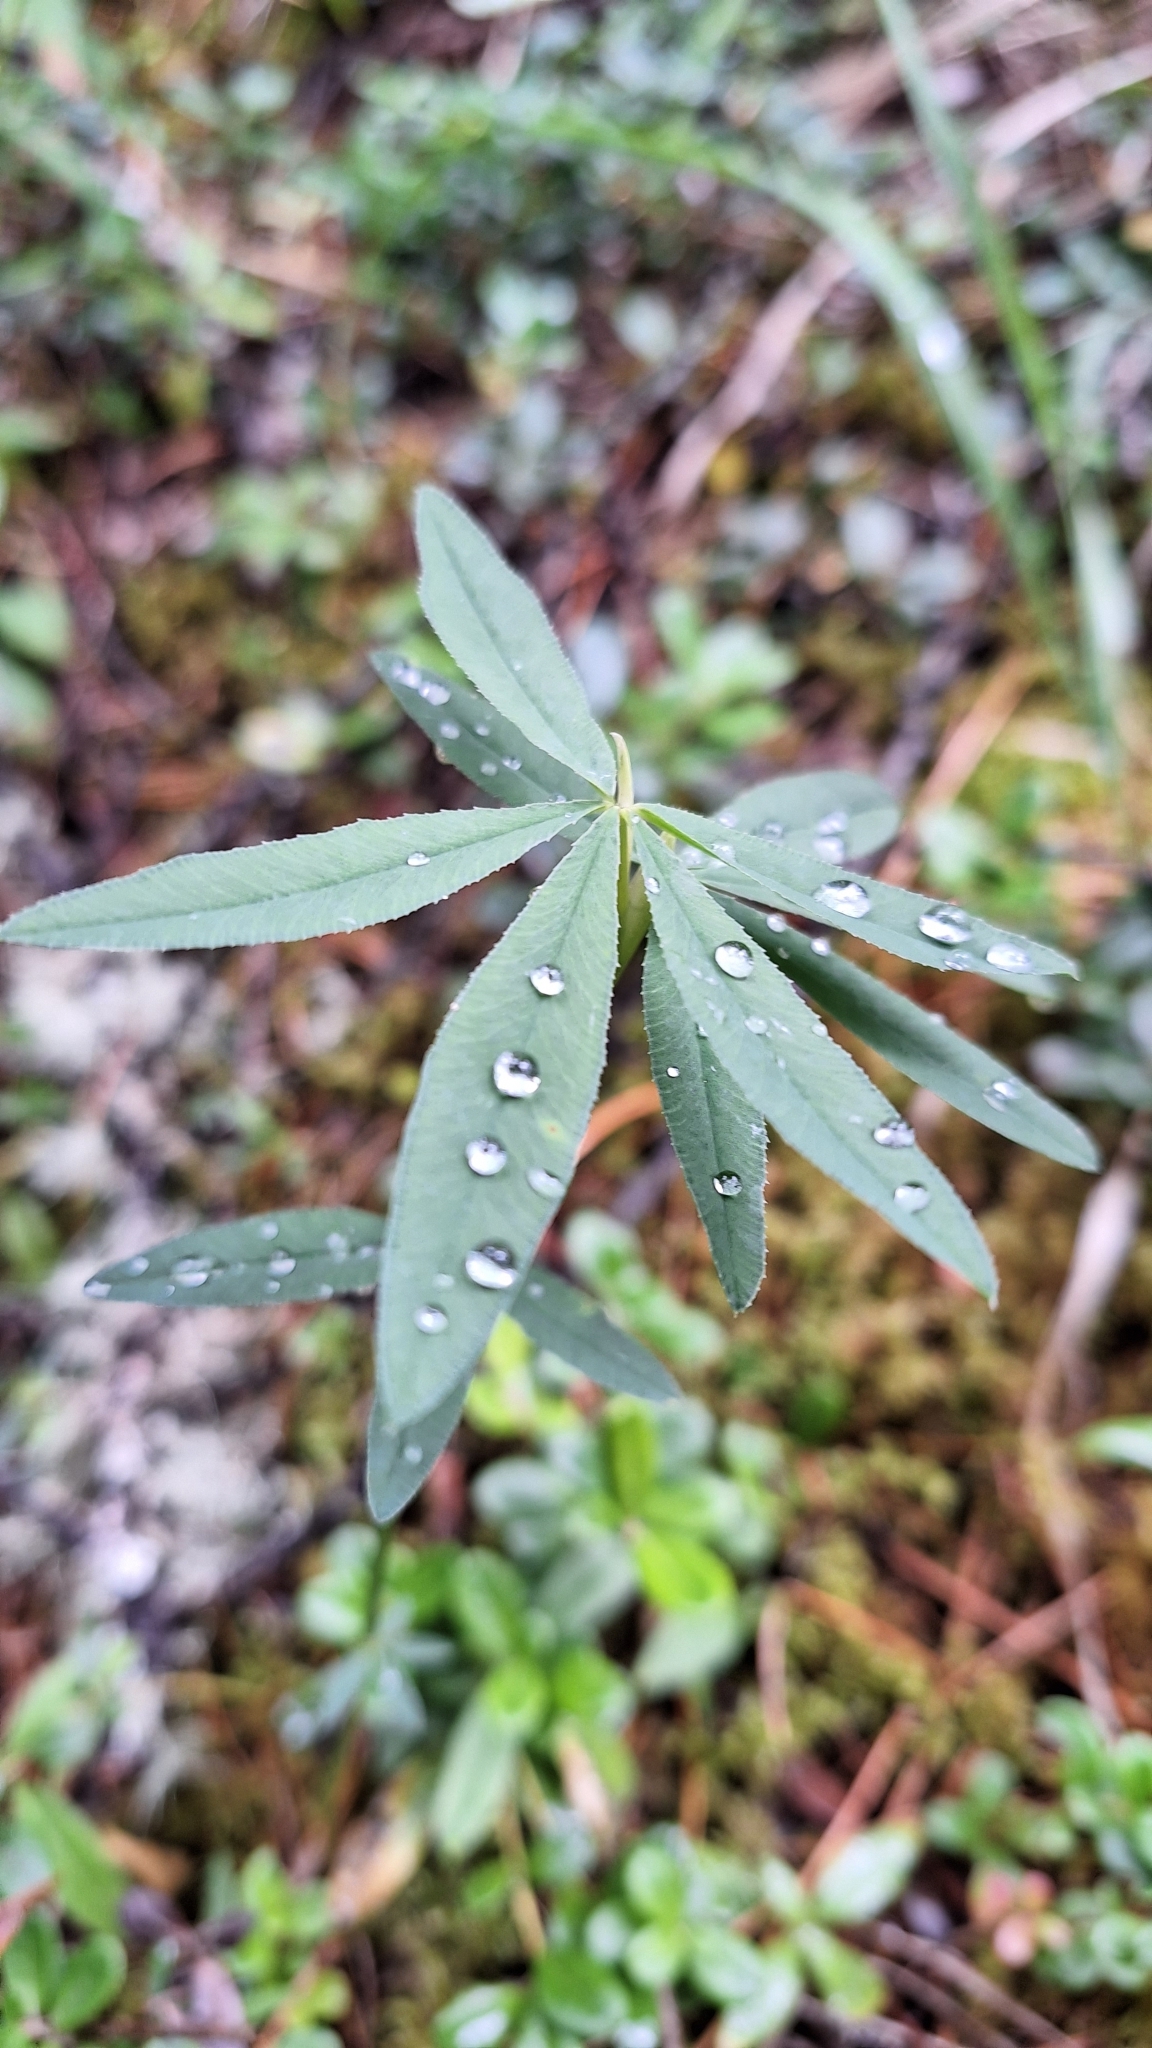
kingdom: Plantae
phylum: Tracheophyta
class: Magnoliopsida
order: Fabales
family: Fabaceae
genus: Trifolium
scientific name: Trifolium lupinaster
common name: Lupine clover
